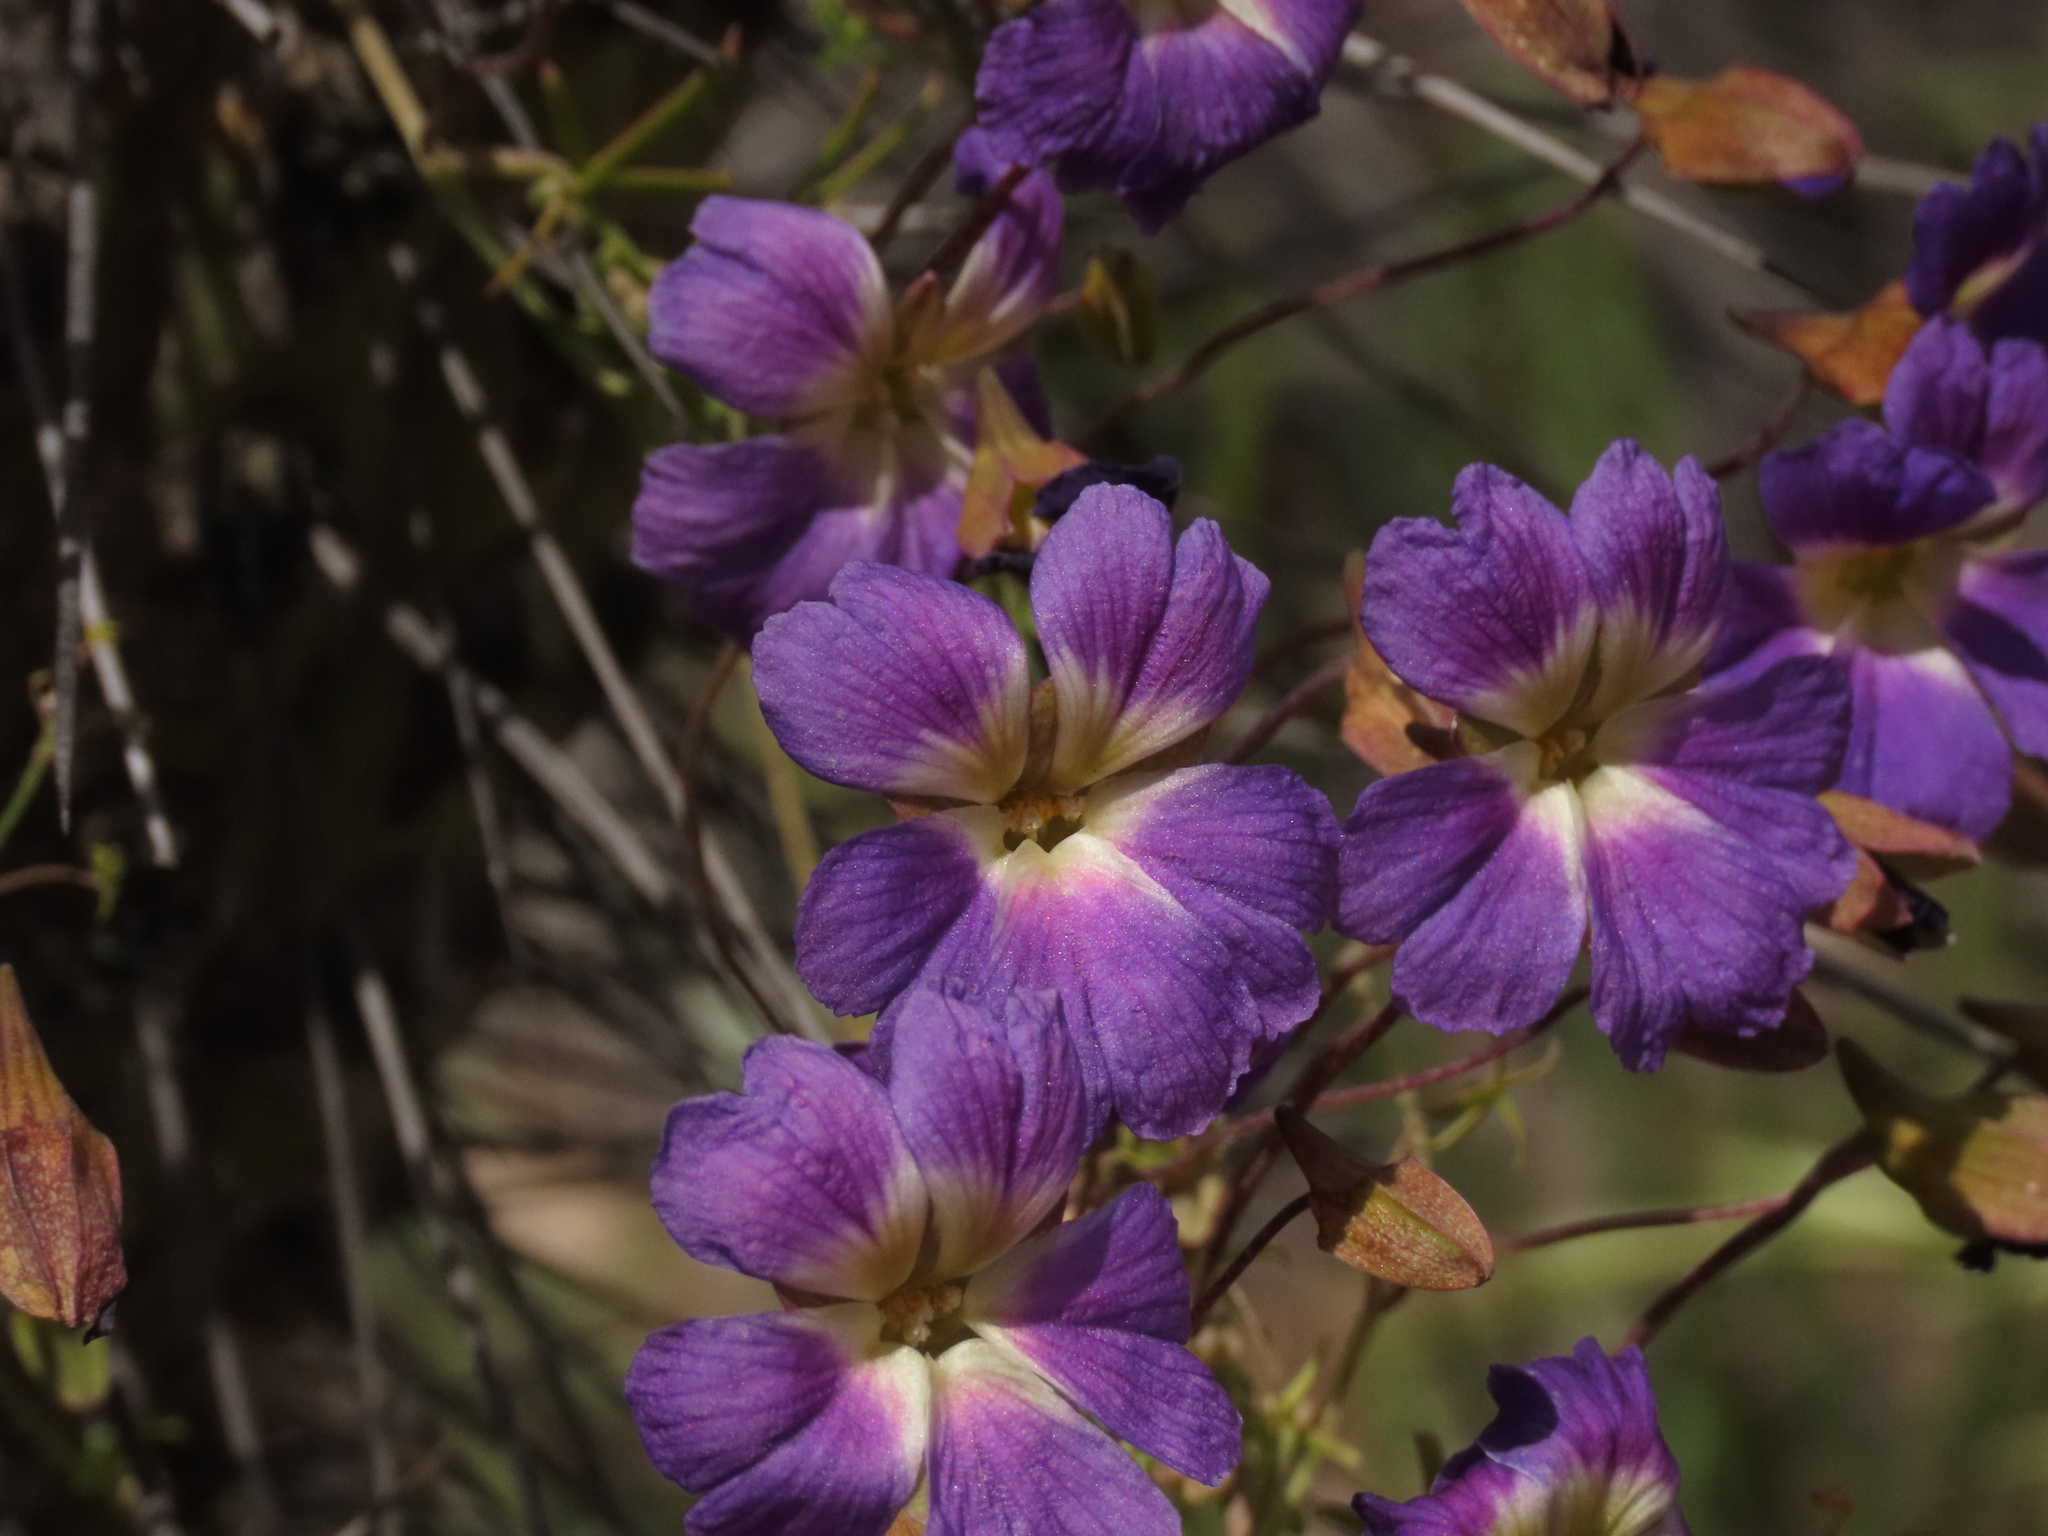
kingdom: Plantae
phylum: Tracheophyta
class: Magnoliopsida
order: Brassicales
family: Tropaeolaceae
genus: Tropaeolum
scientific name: Tropaeolum azureum
